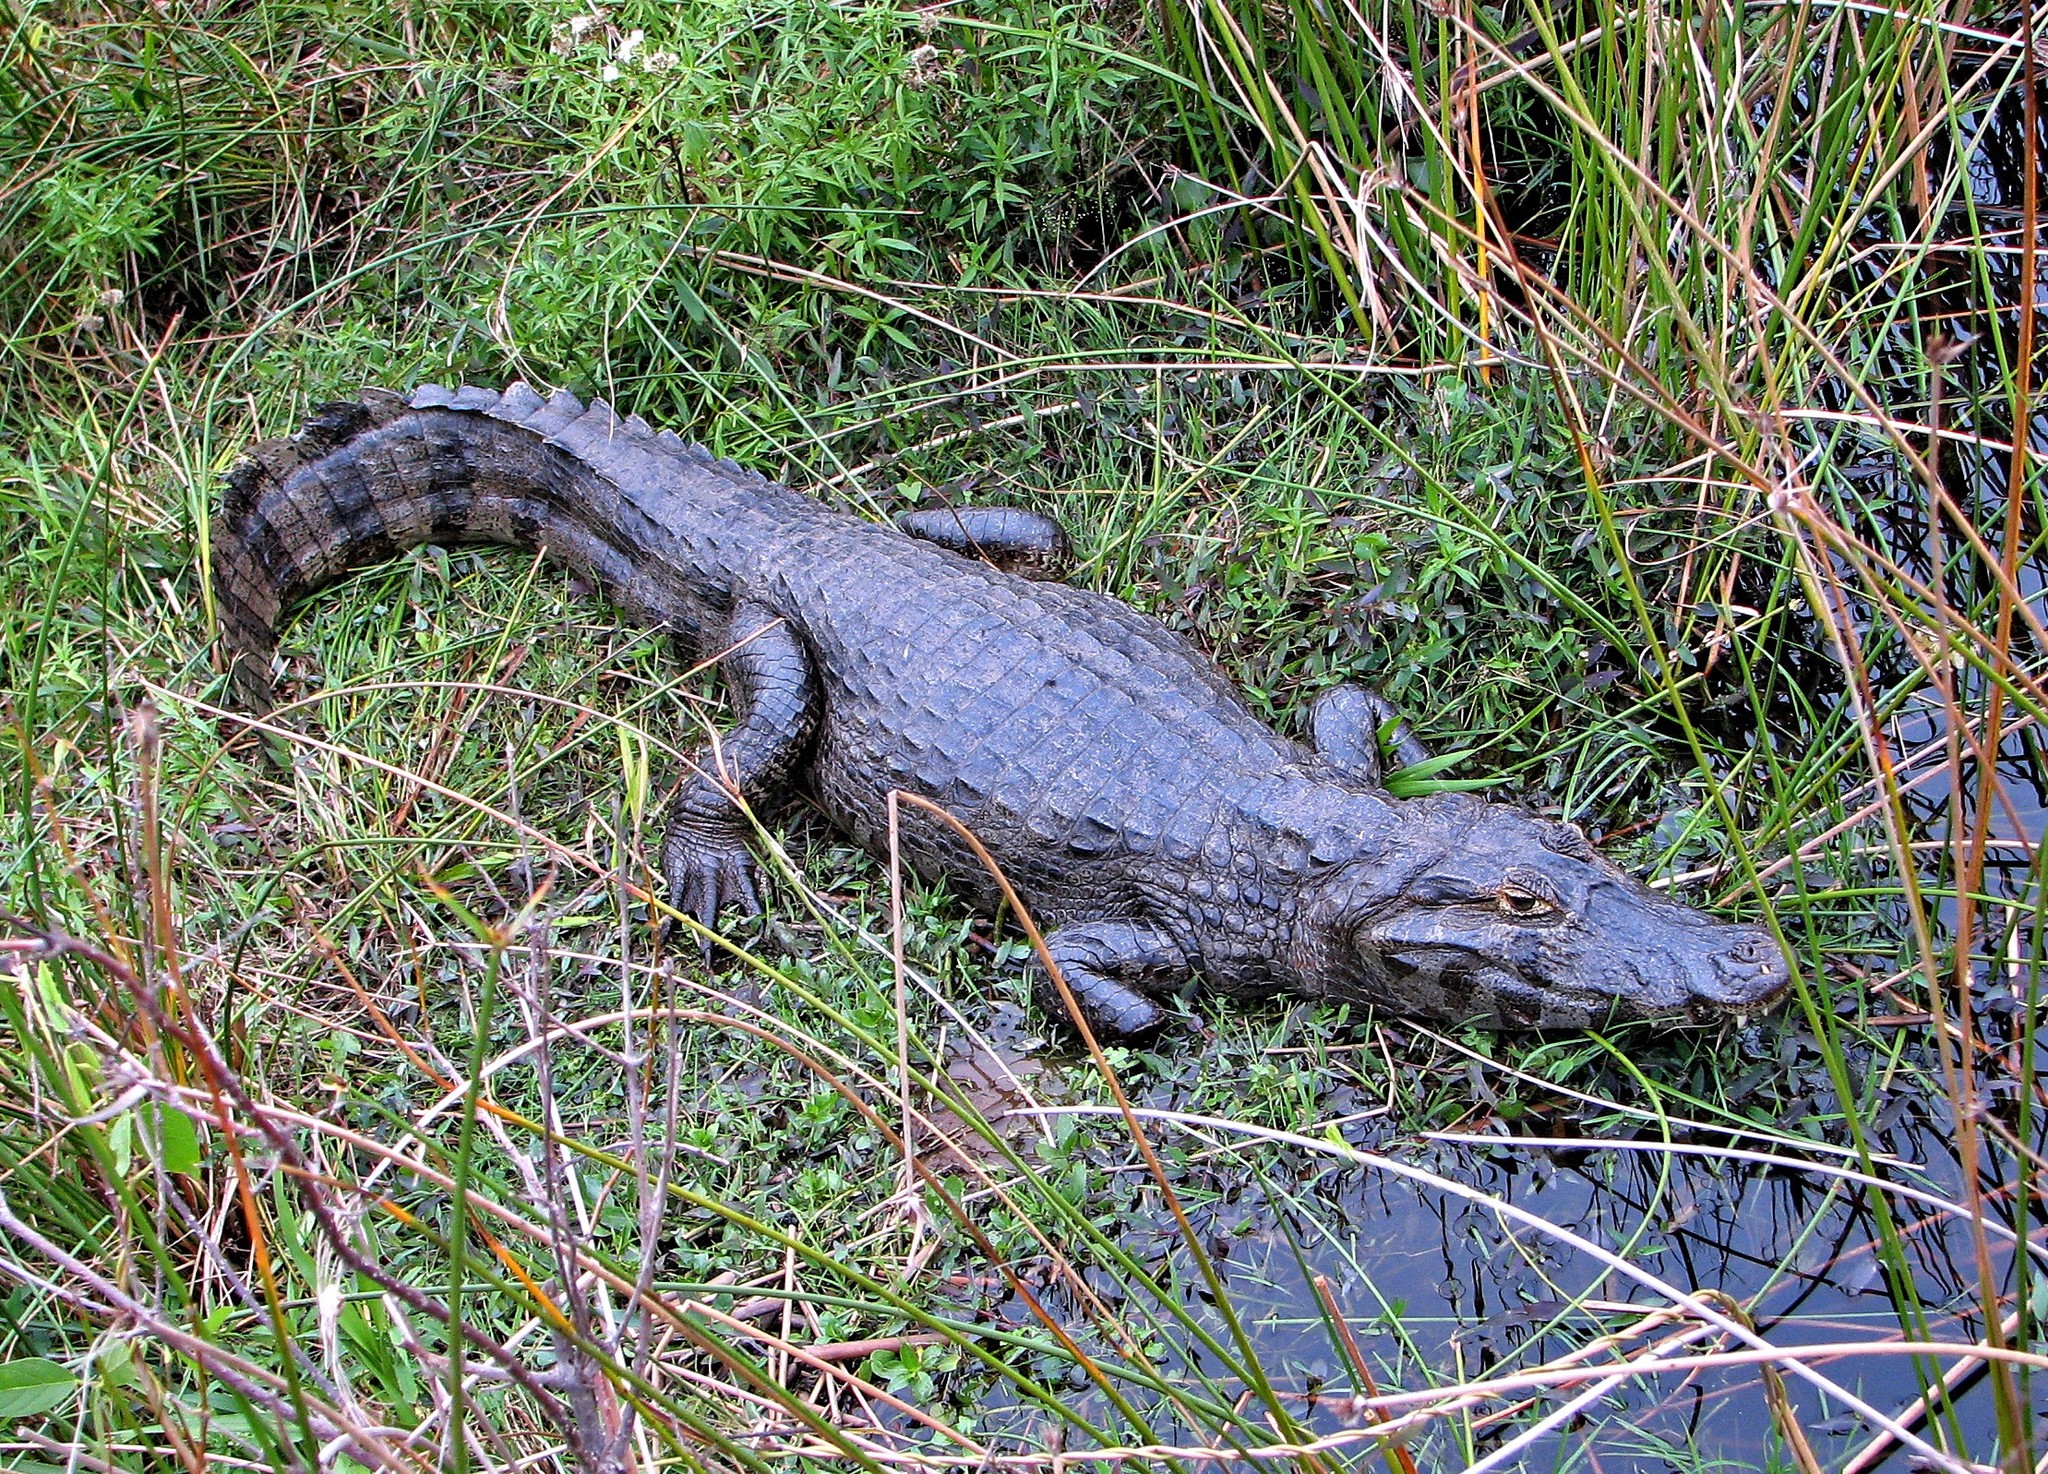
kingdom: Animalia
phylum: Chordata
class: Crocodylia
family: Alligatoridae
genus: Caiman
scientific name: Caiman yacare
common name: Yacare caiman
